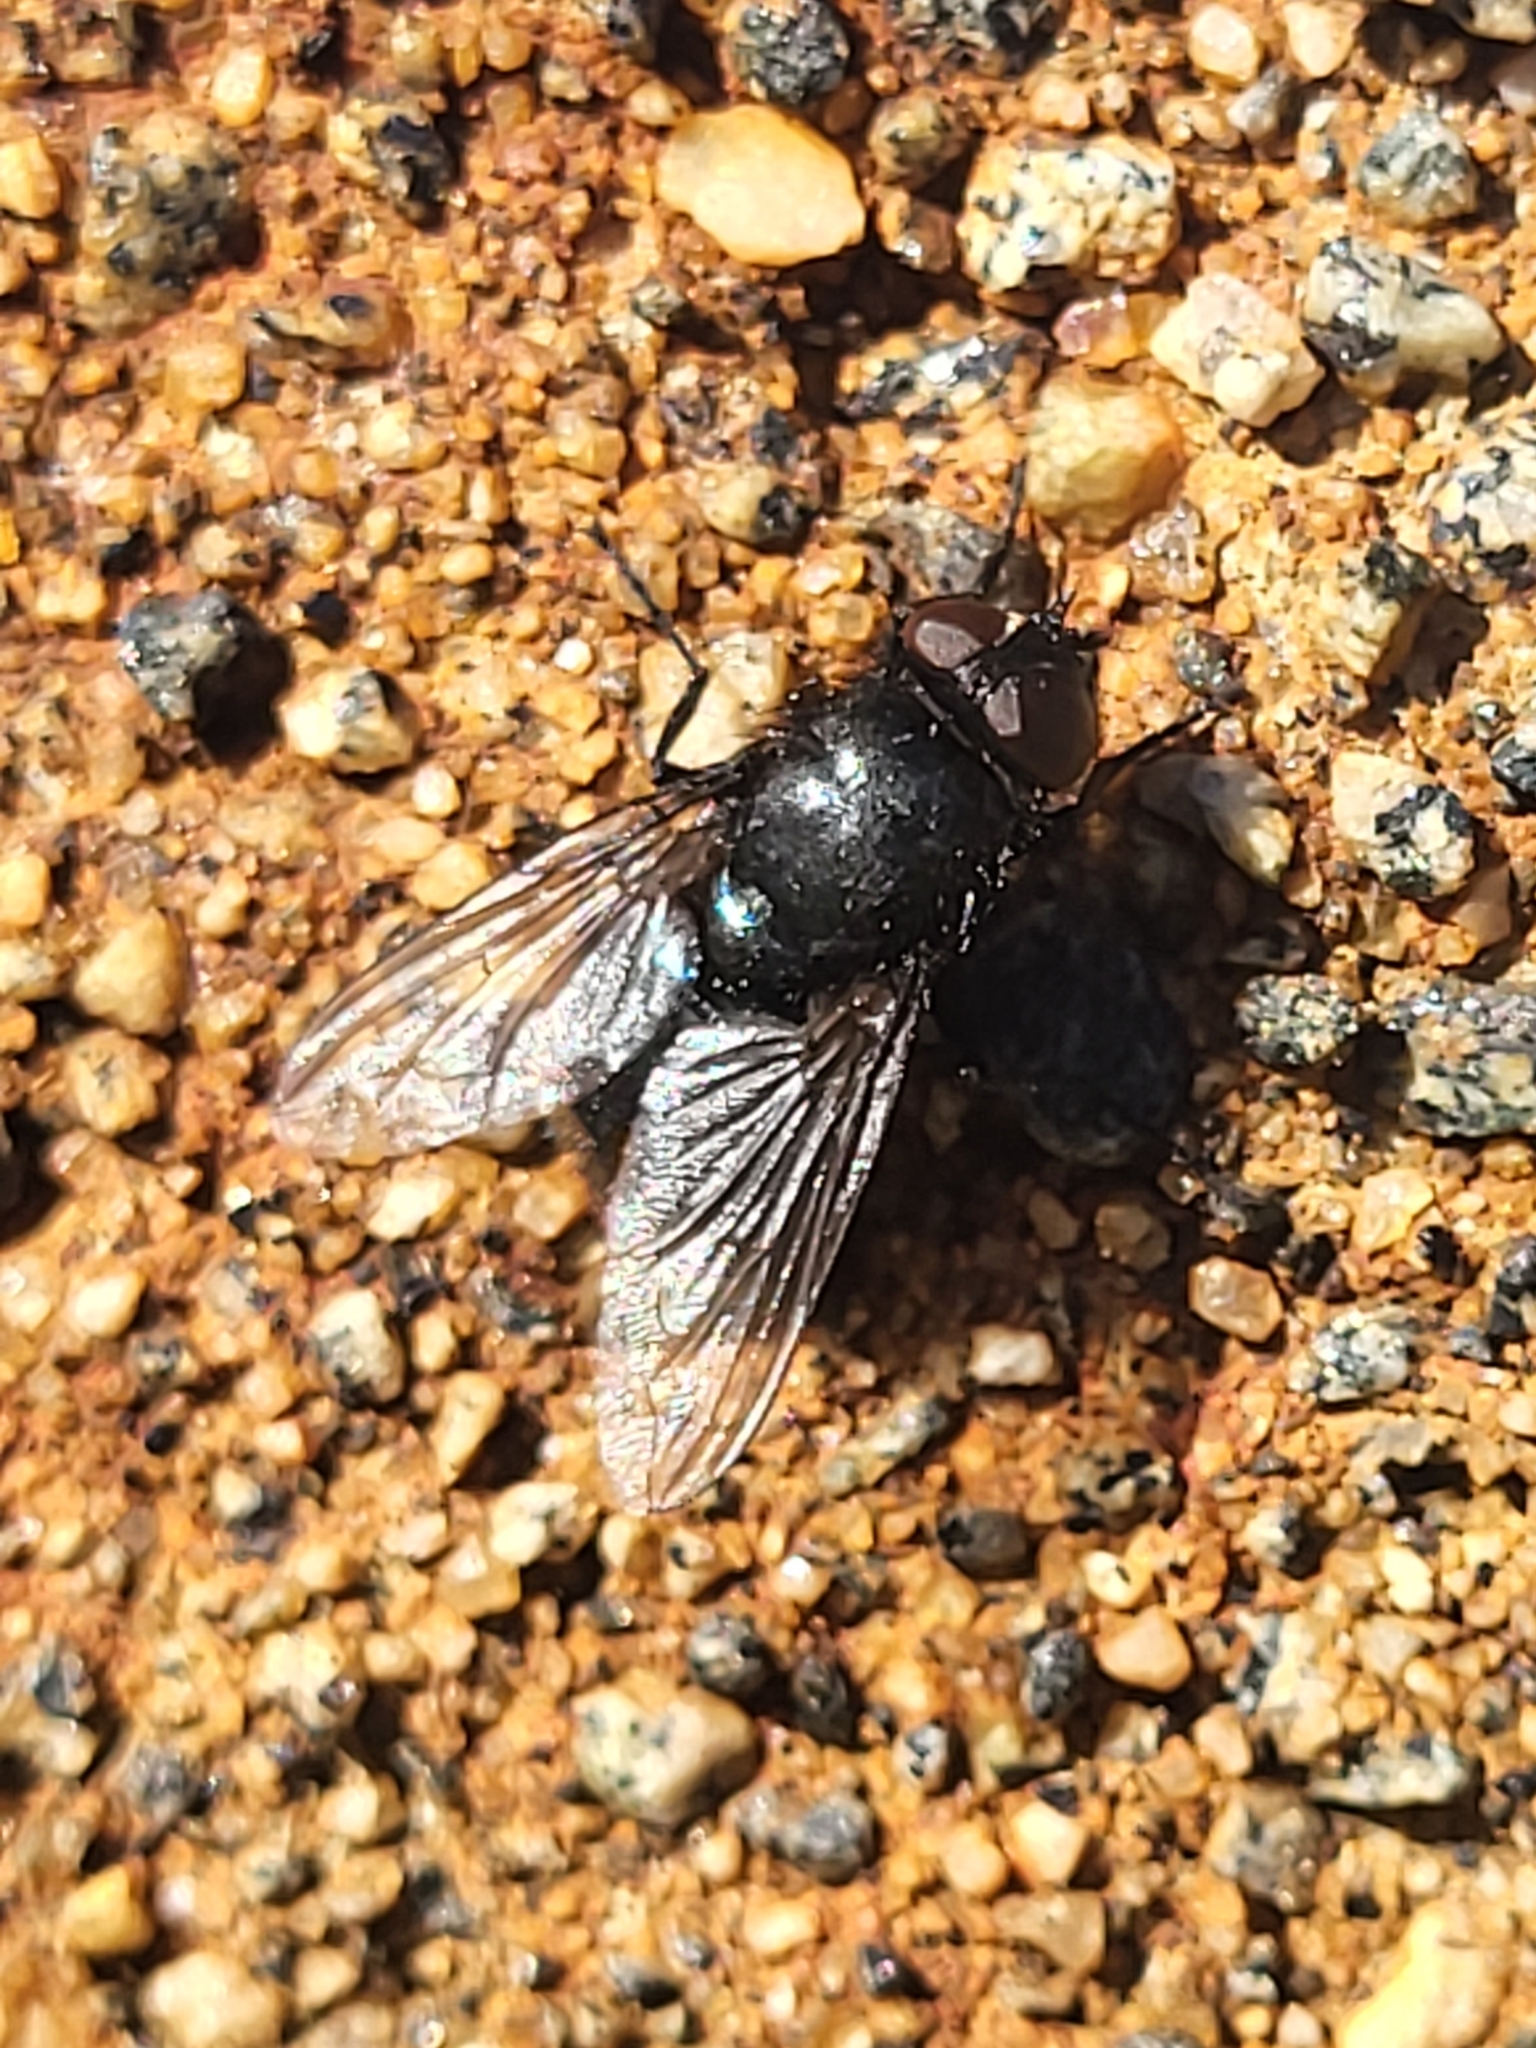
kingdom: Animalia
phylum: Arthropoda
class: Insecta
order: Diptera
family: Calliphoridae
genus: Protophormia
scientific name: Protophormia terraenovae
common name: Blackbottle
